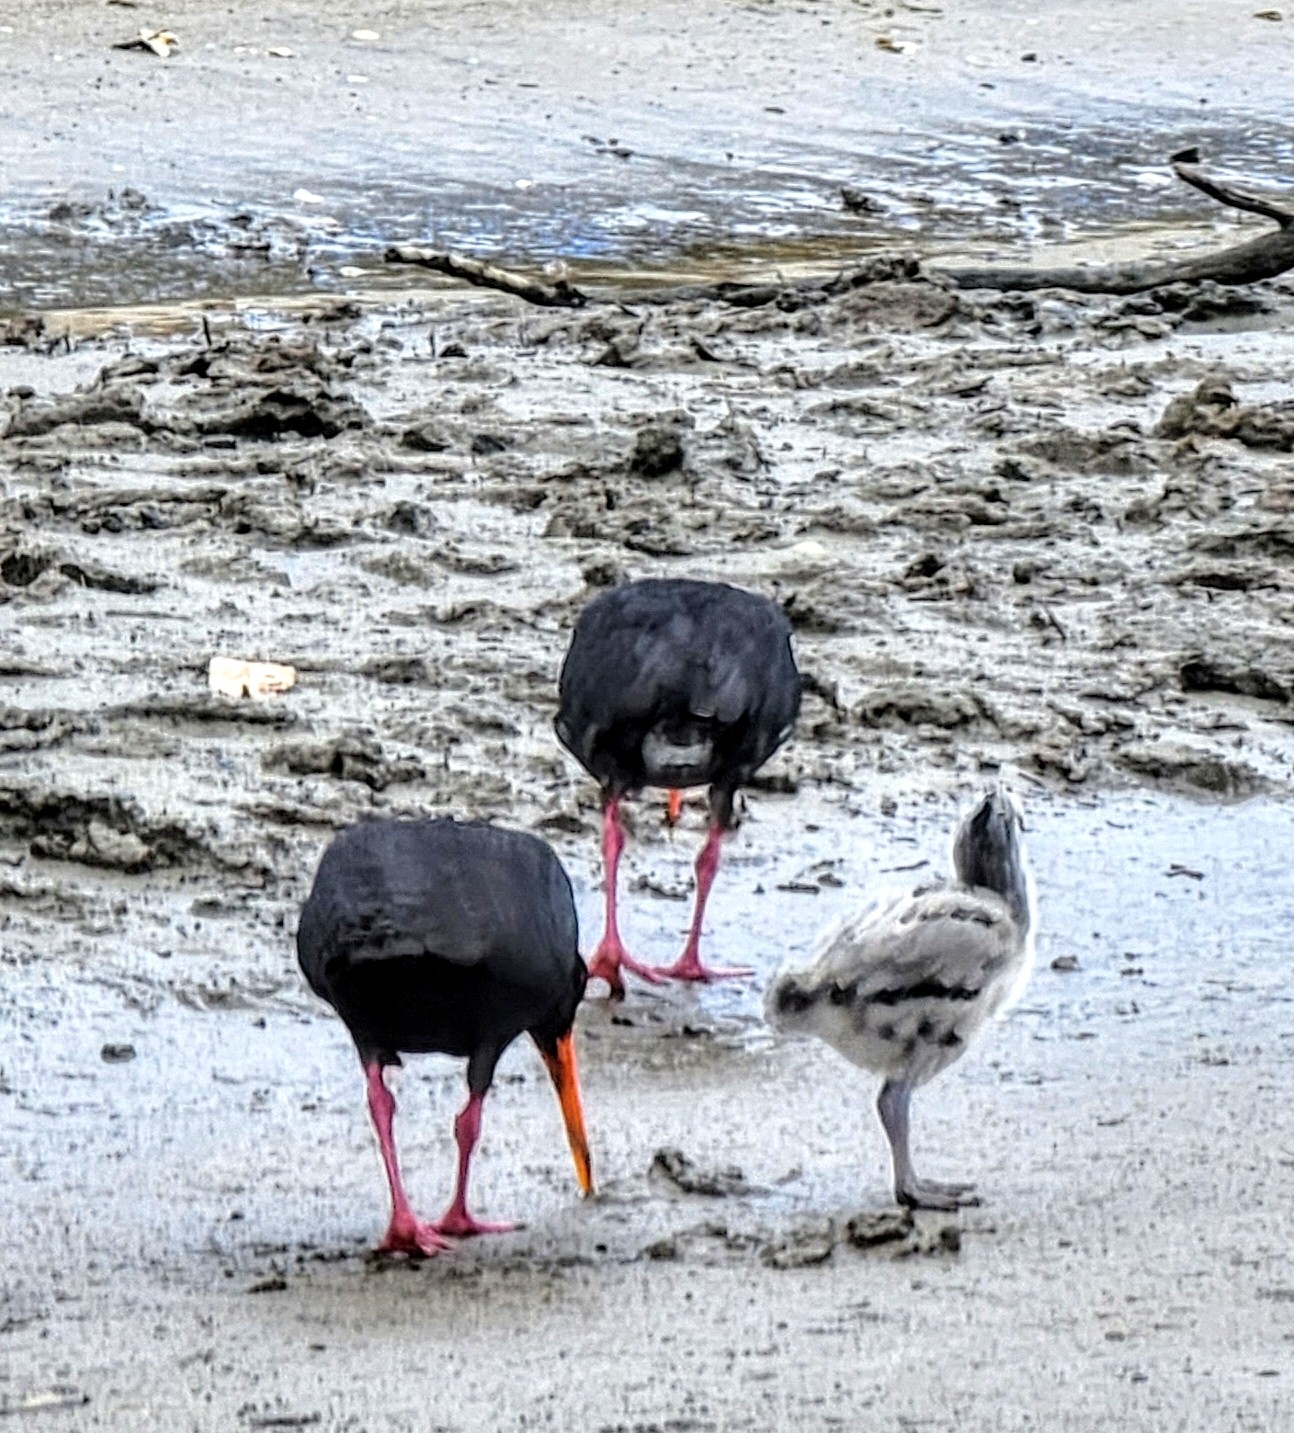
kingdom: Animalia
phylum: Chordata
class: Aves
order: Charadriiformes
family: Haematopodidae
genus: Haematopus
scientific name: Haematopus unicolor
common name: Variable oystercatcher
